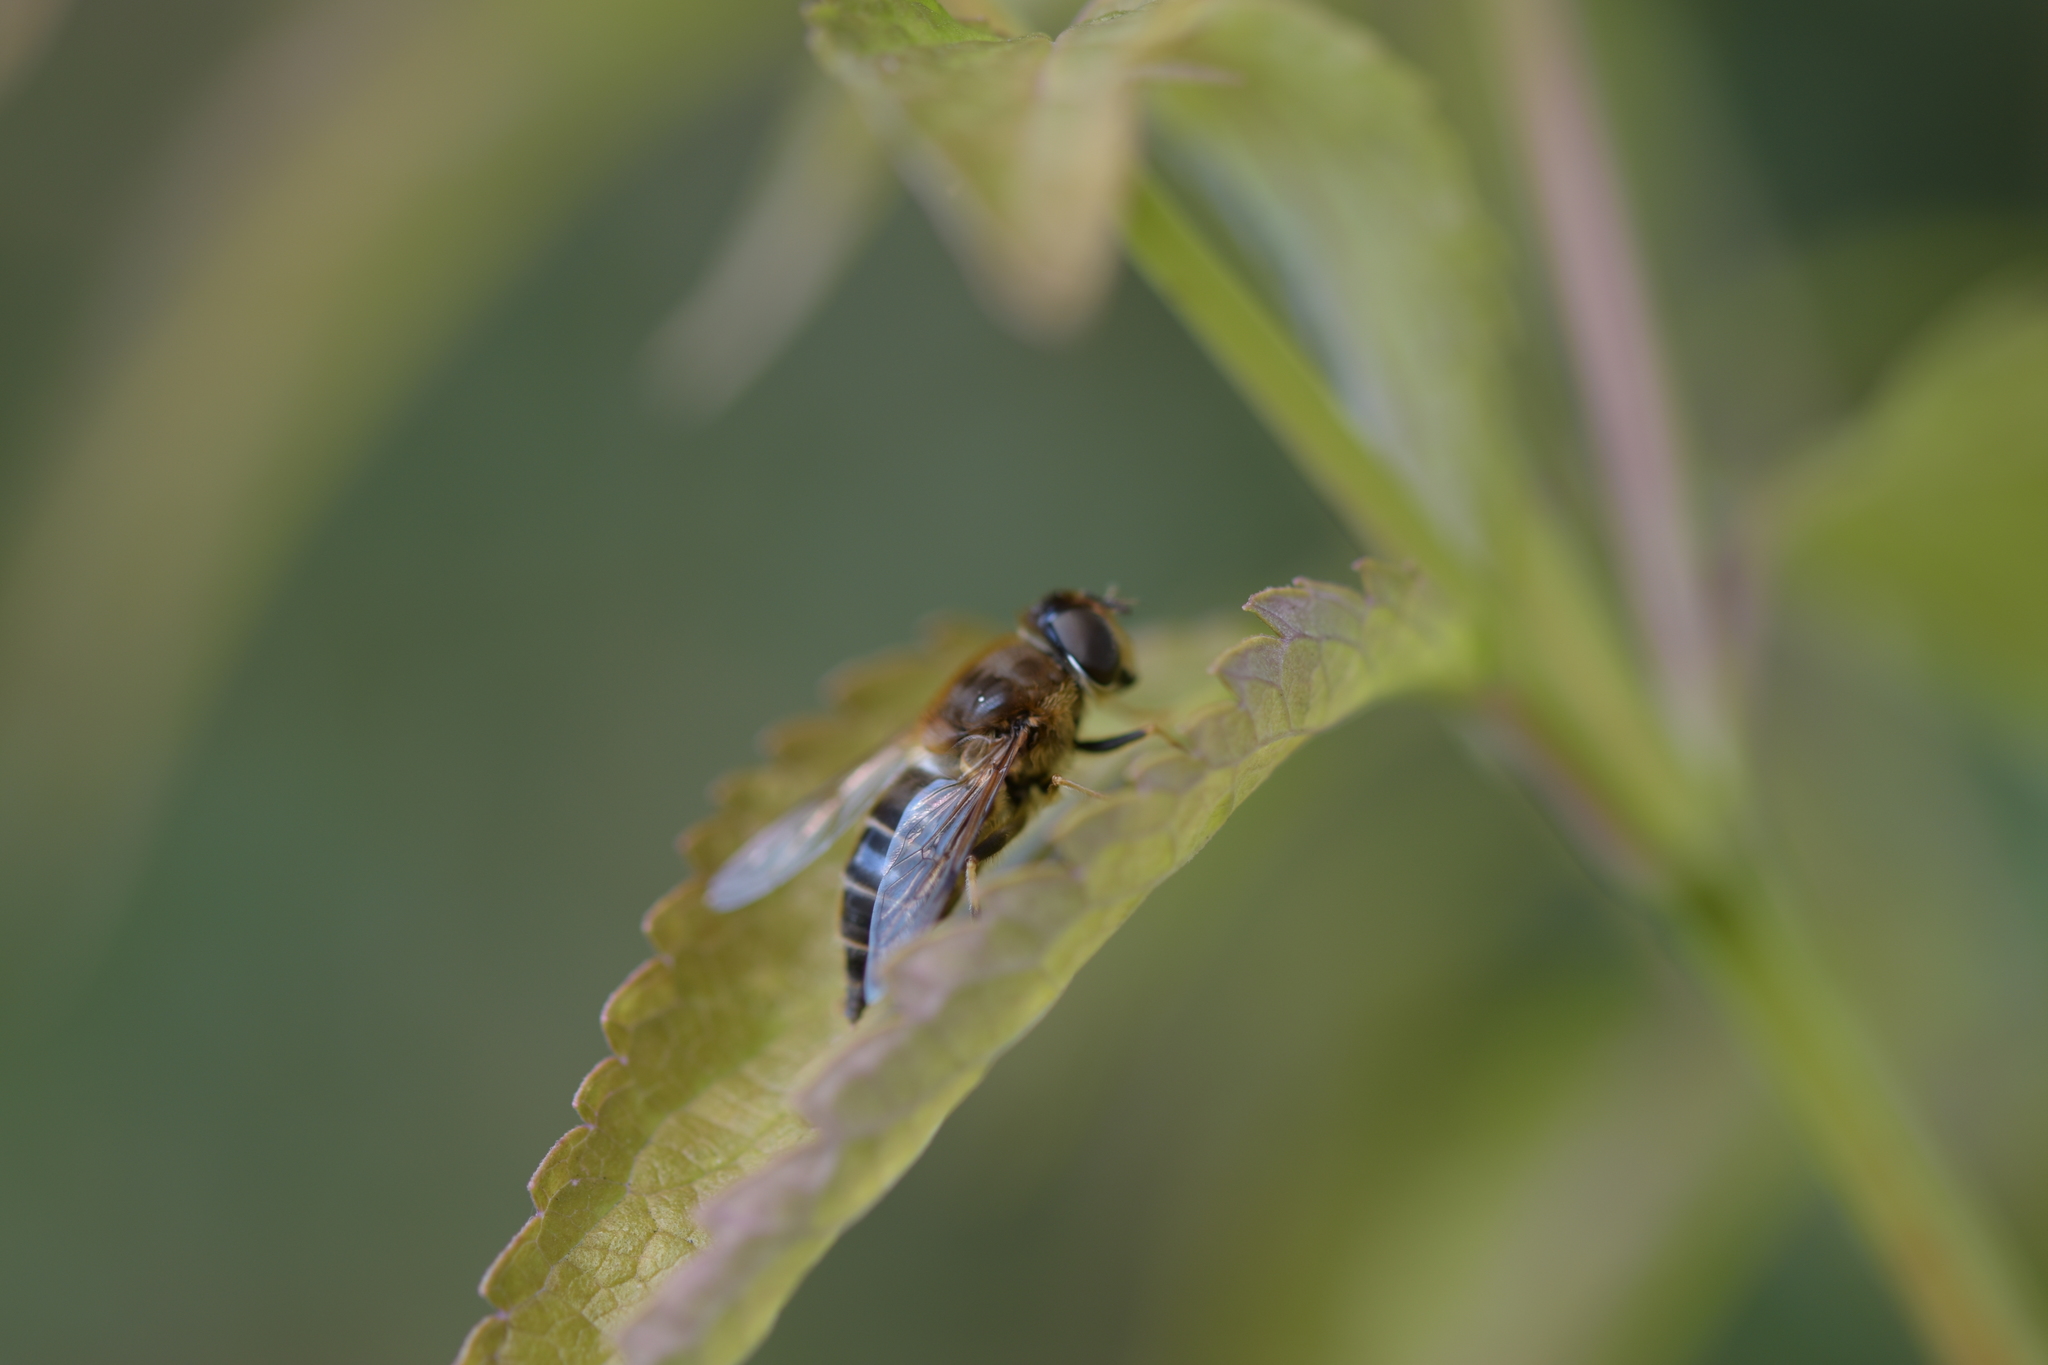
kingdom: Animalia
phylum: Arthropoda
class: Insecta
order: Diptera
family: Syrphidae
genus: Eristalis
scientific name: Eristalis pertinax
